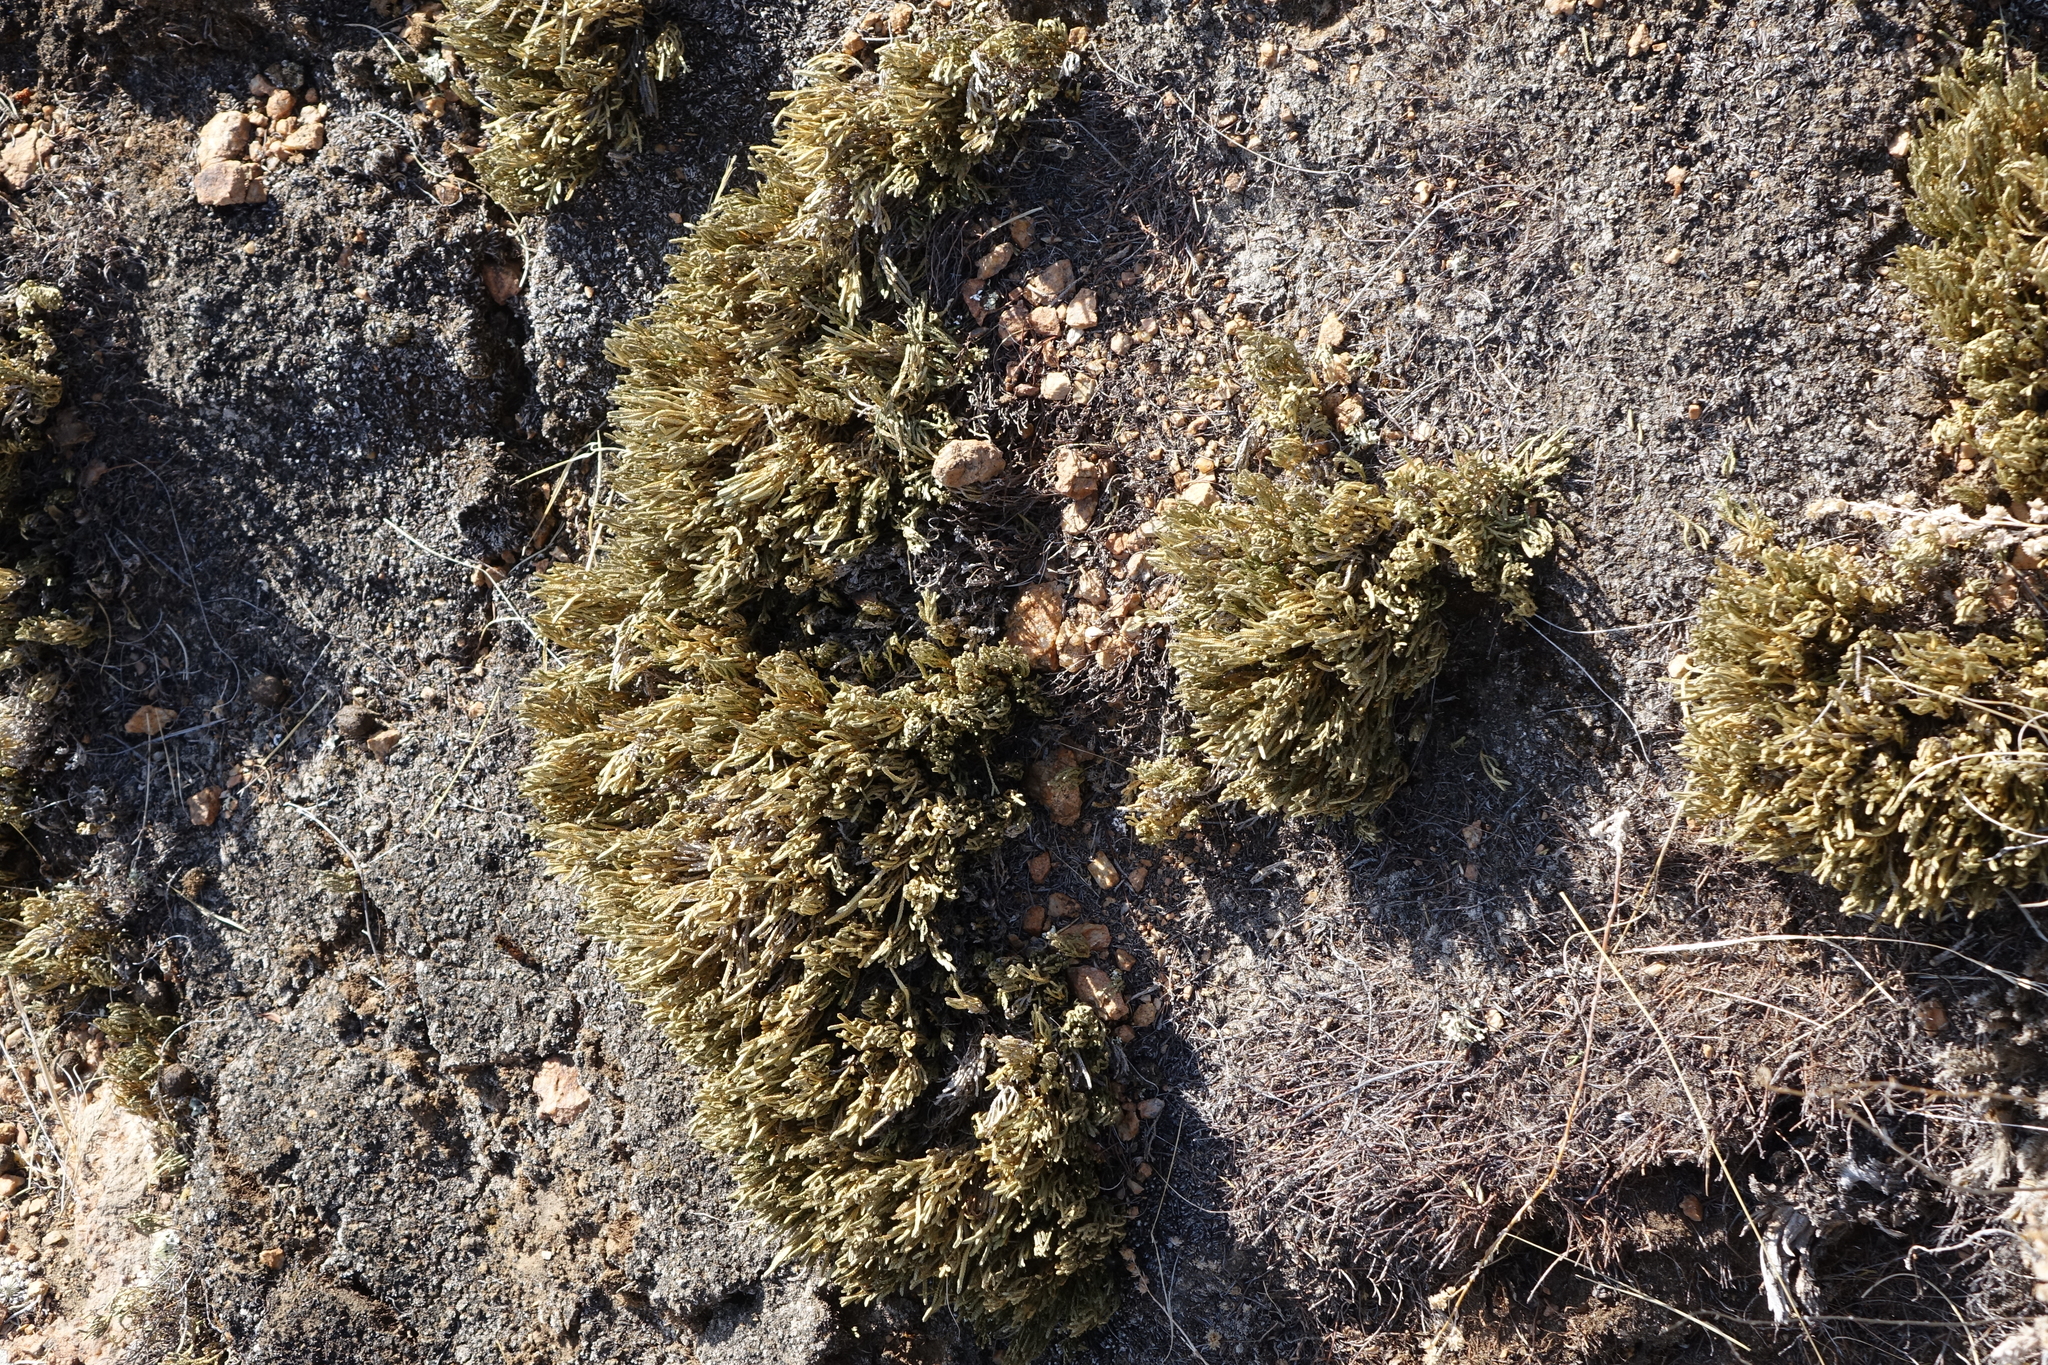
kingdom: Plantae
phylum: Tracheophyta
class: Lycopodiopsida
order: Selaginellales
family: Selaginellaceae
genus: Selaginella
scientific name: Selaginella sanguinolenta
